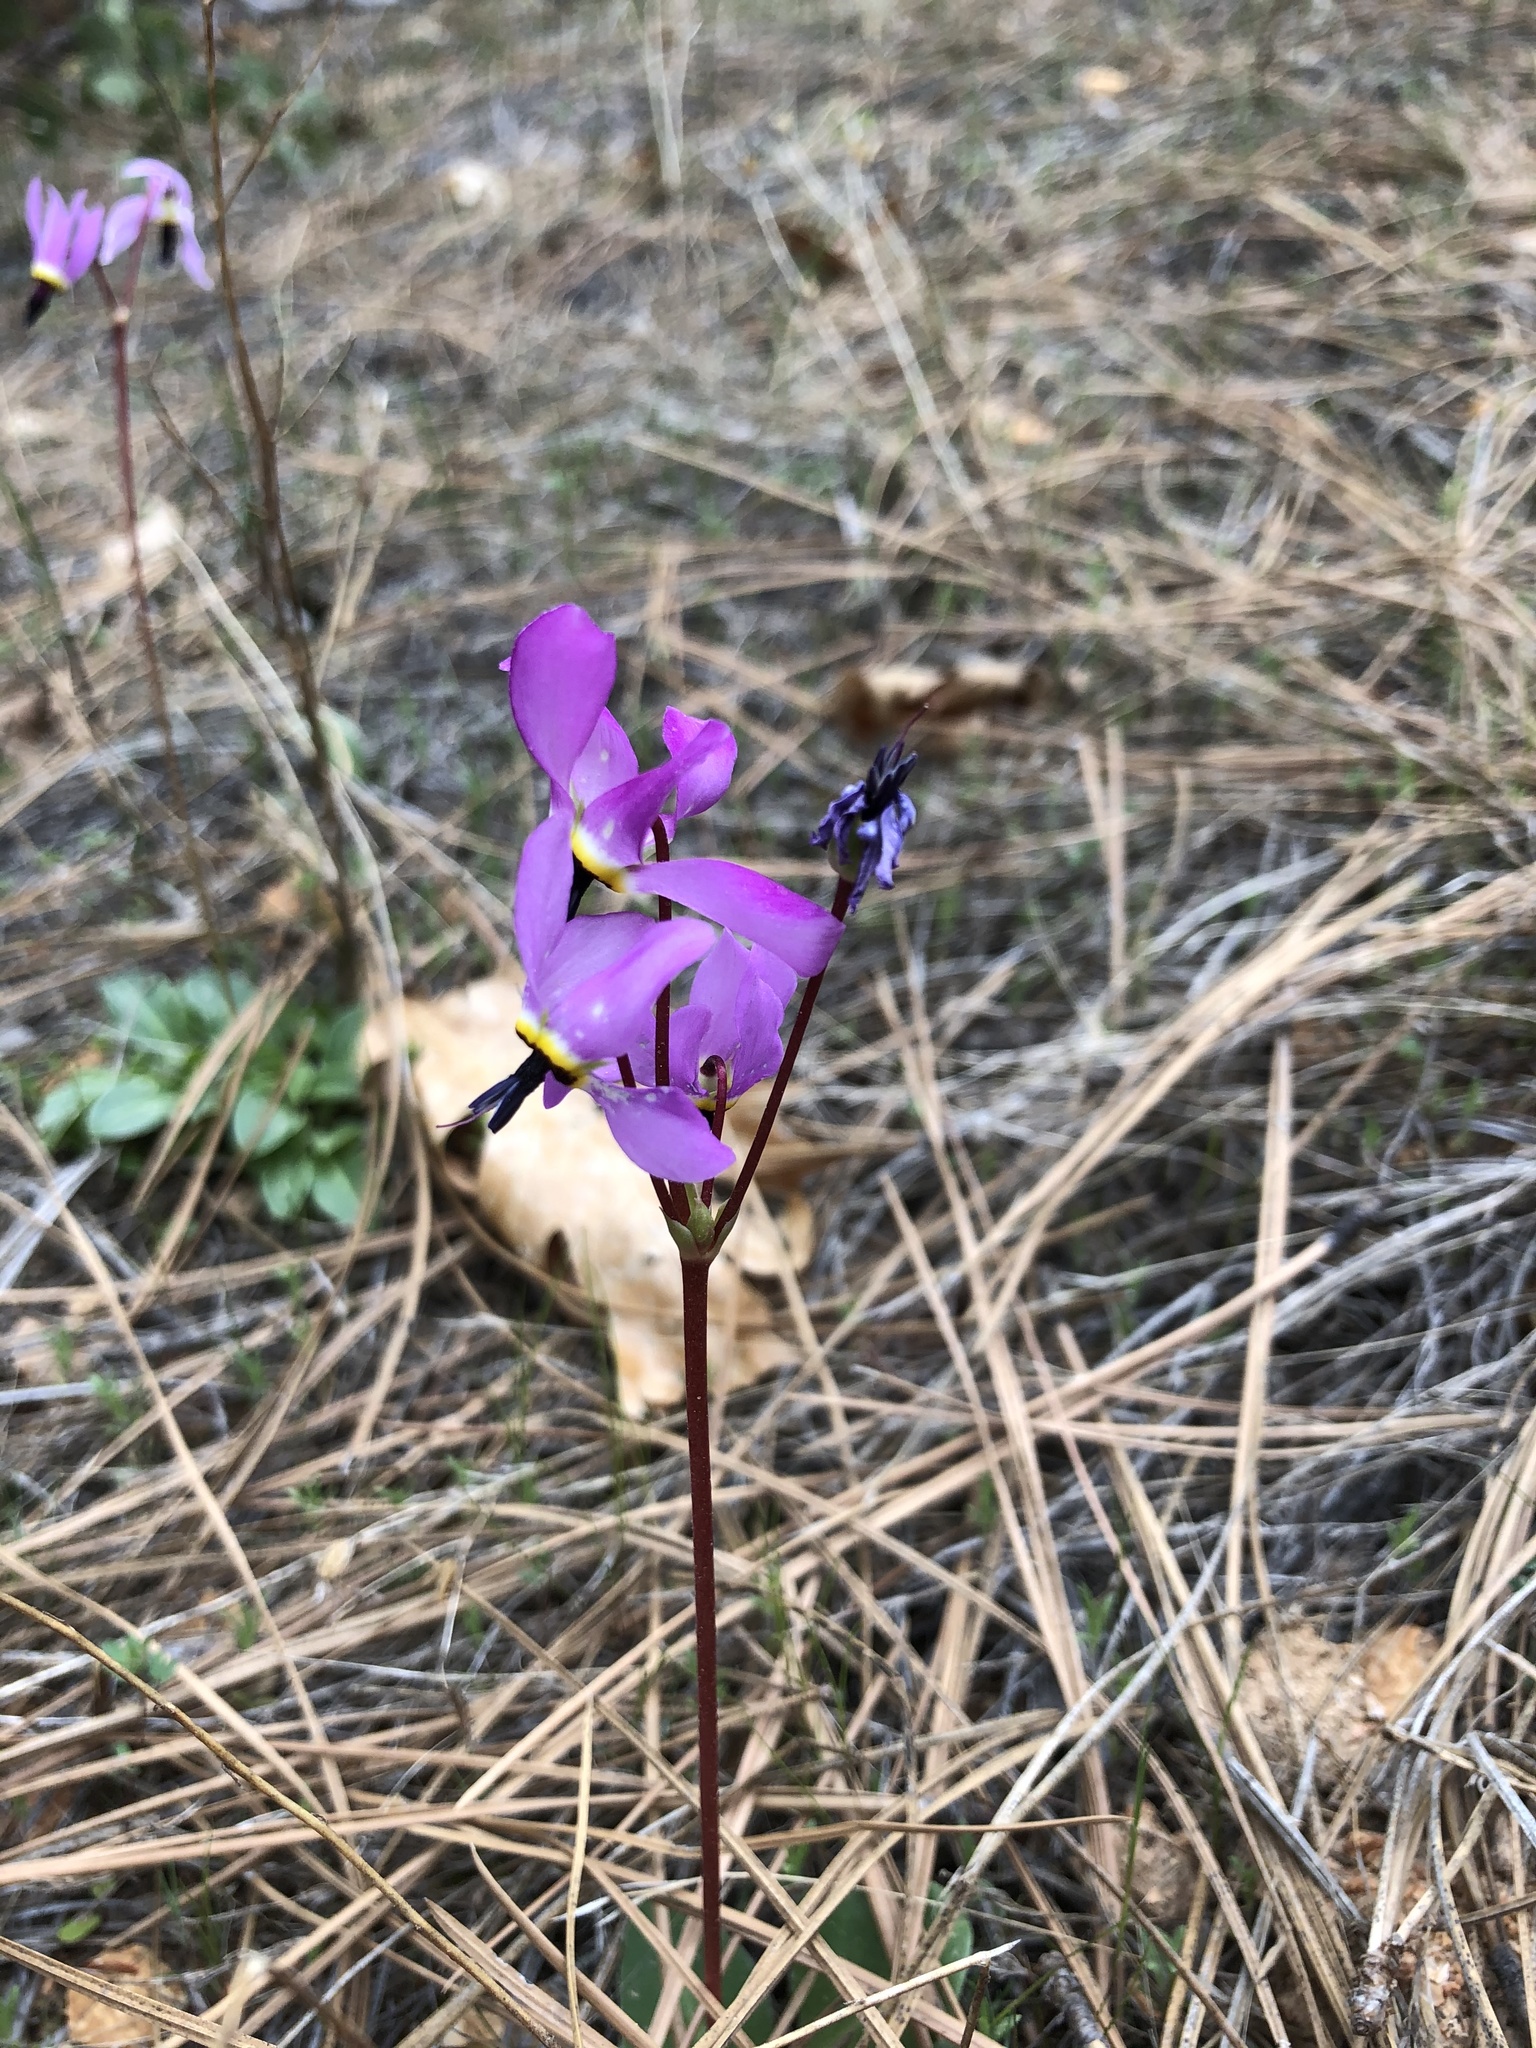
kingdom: Plantae
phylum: Tracheophyta
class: Magnoliopsida
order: Ericales
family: Primulaceae
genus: Dodecatheon
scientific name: Dodecatheon jeffreyanum
